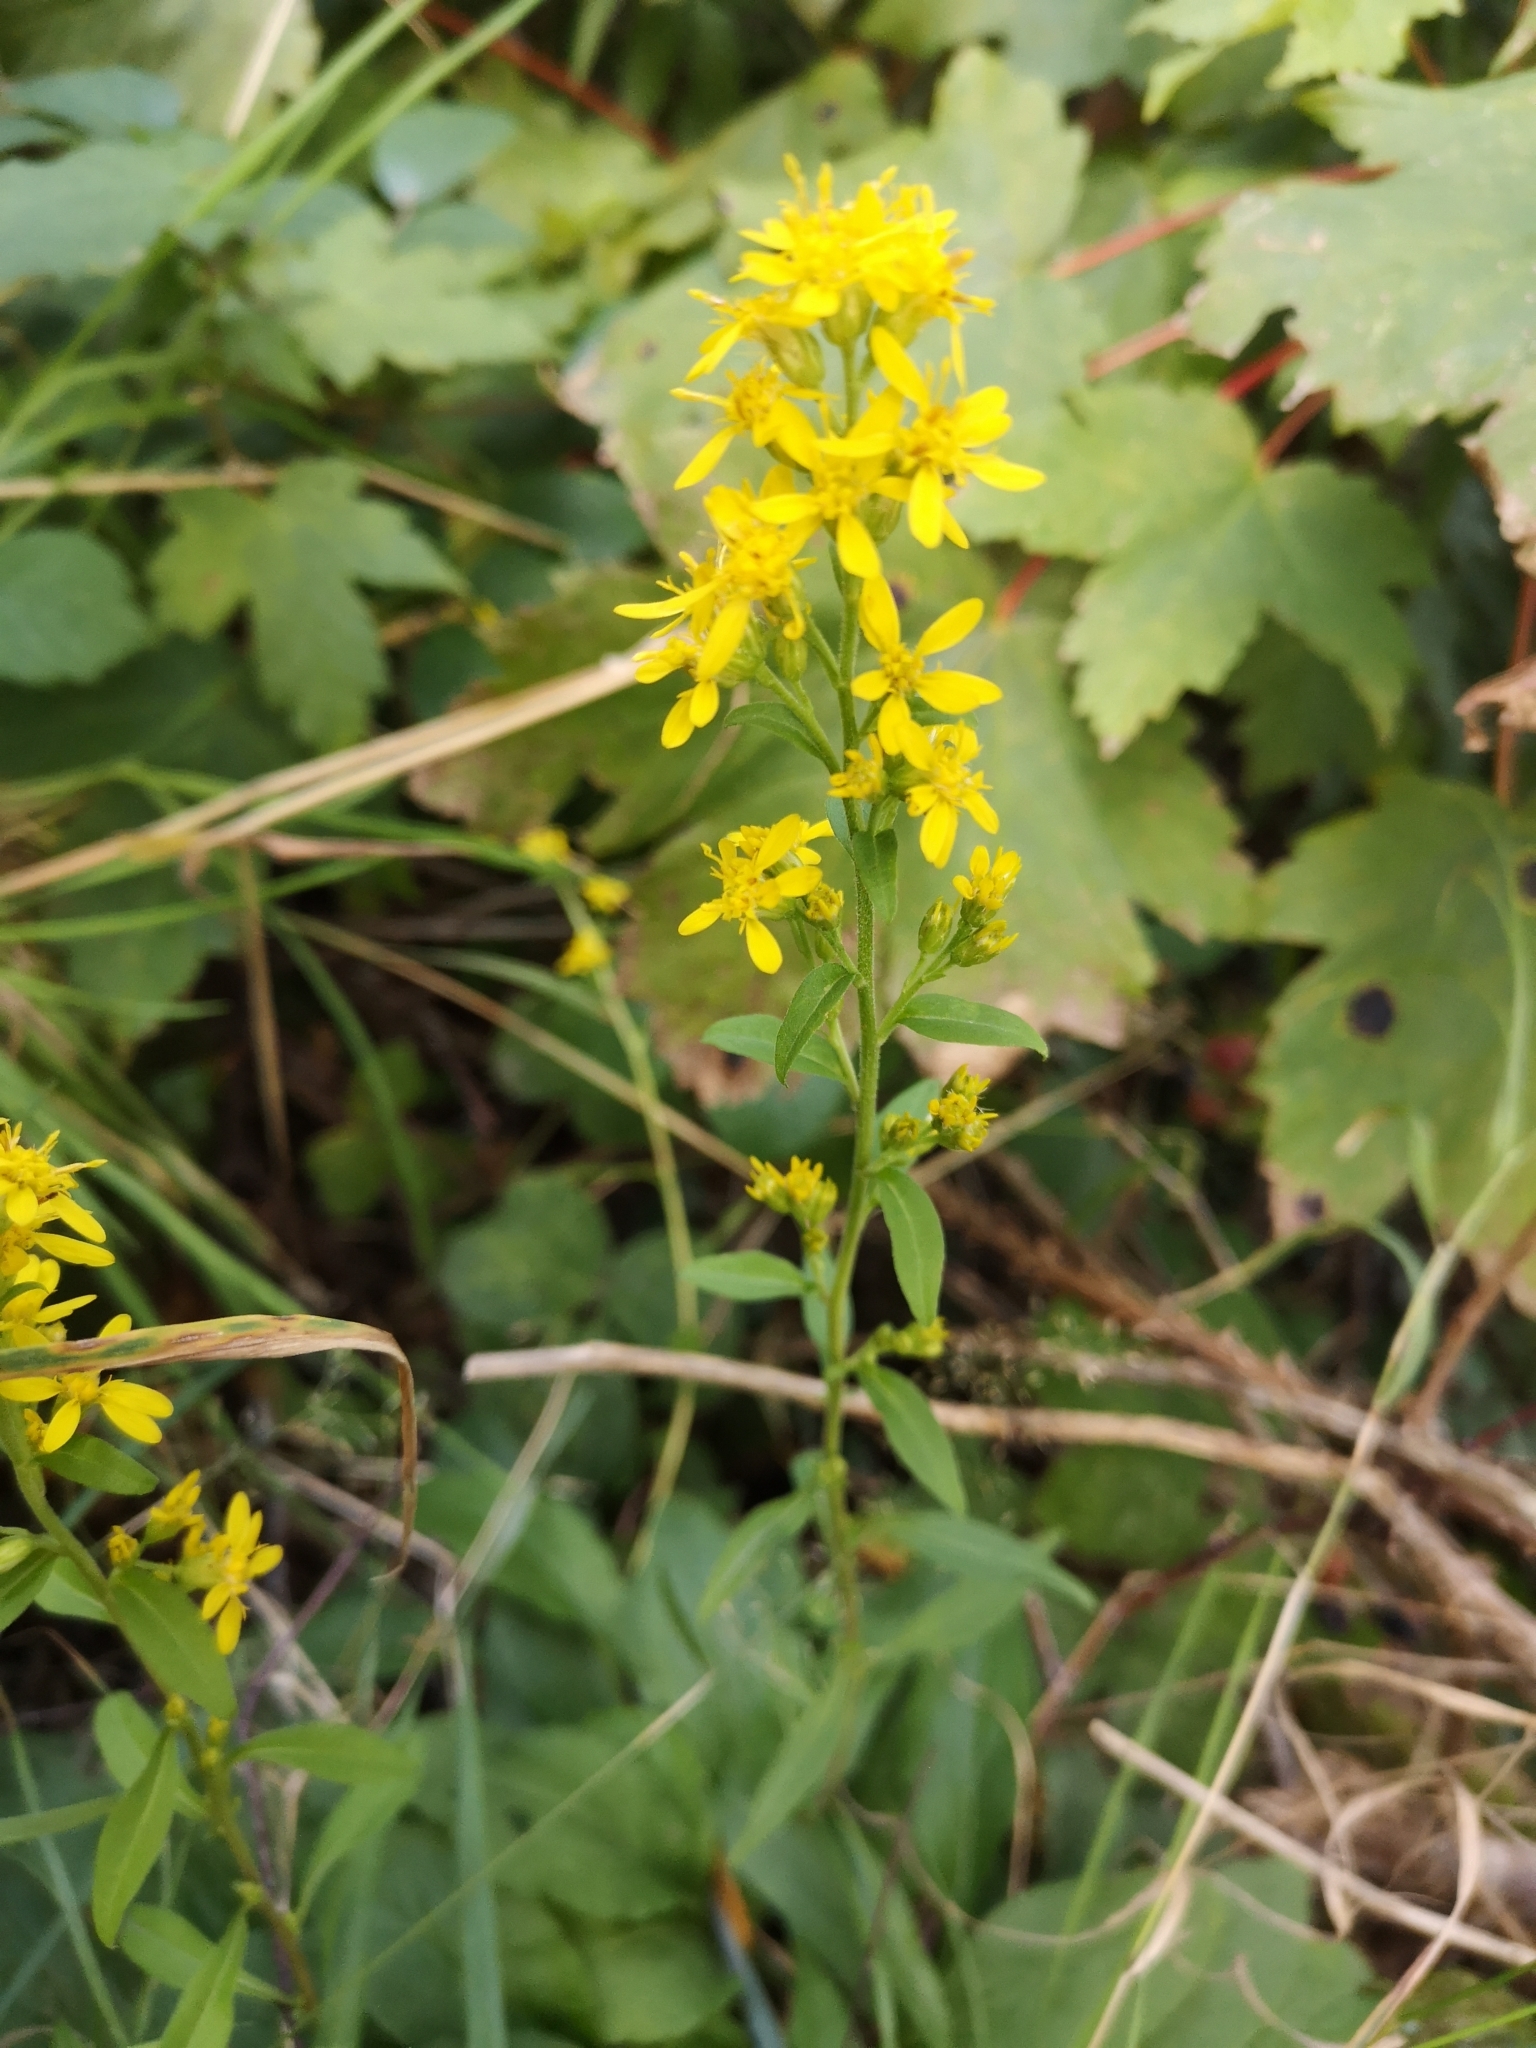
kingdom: Plantae
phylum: Tracheophyta
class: Magnoliopsida
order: Asterales
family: Asteraceae
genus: Solidago
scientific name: Solidago virgaurea
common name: Goldenrod
